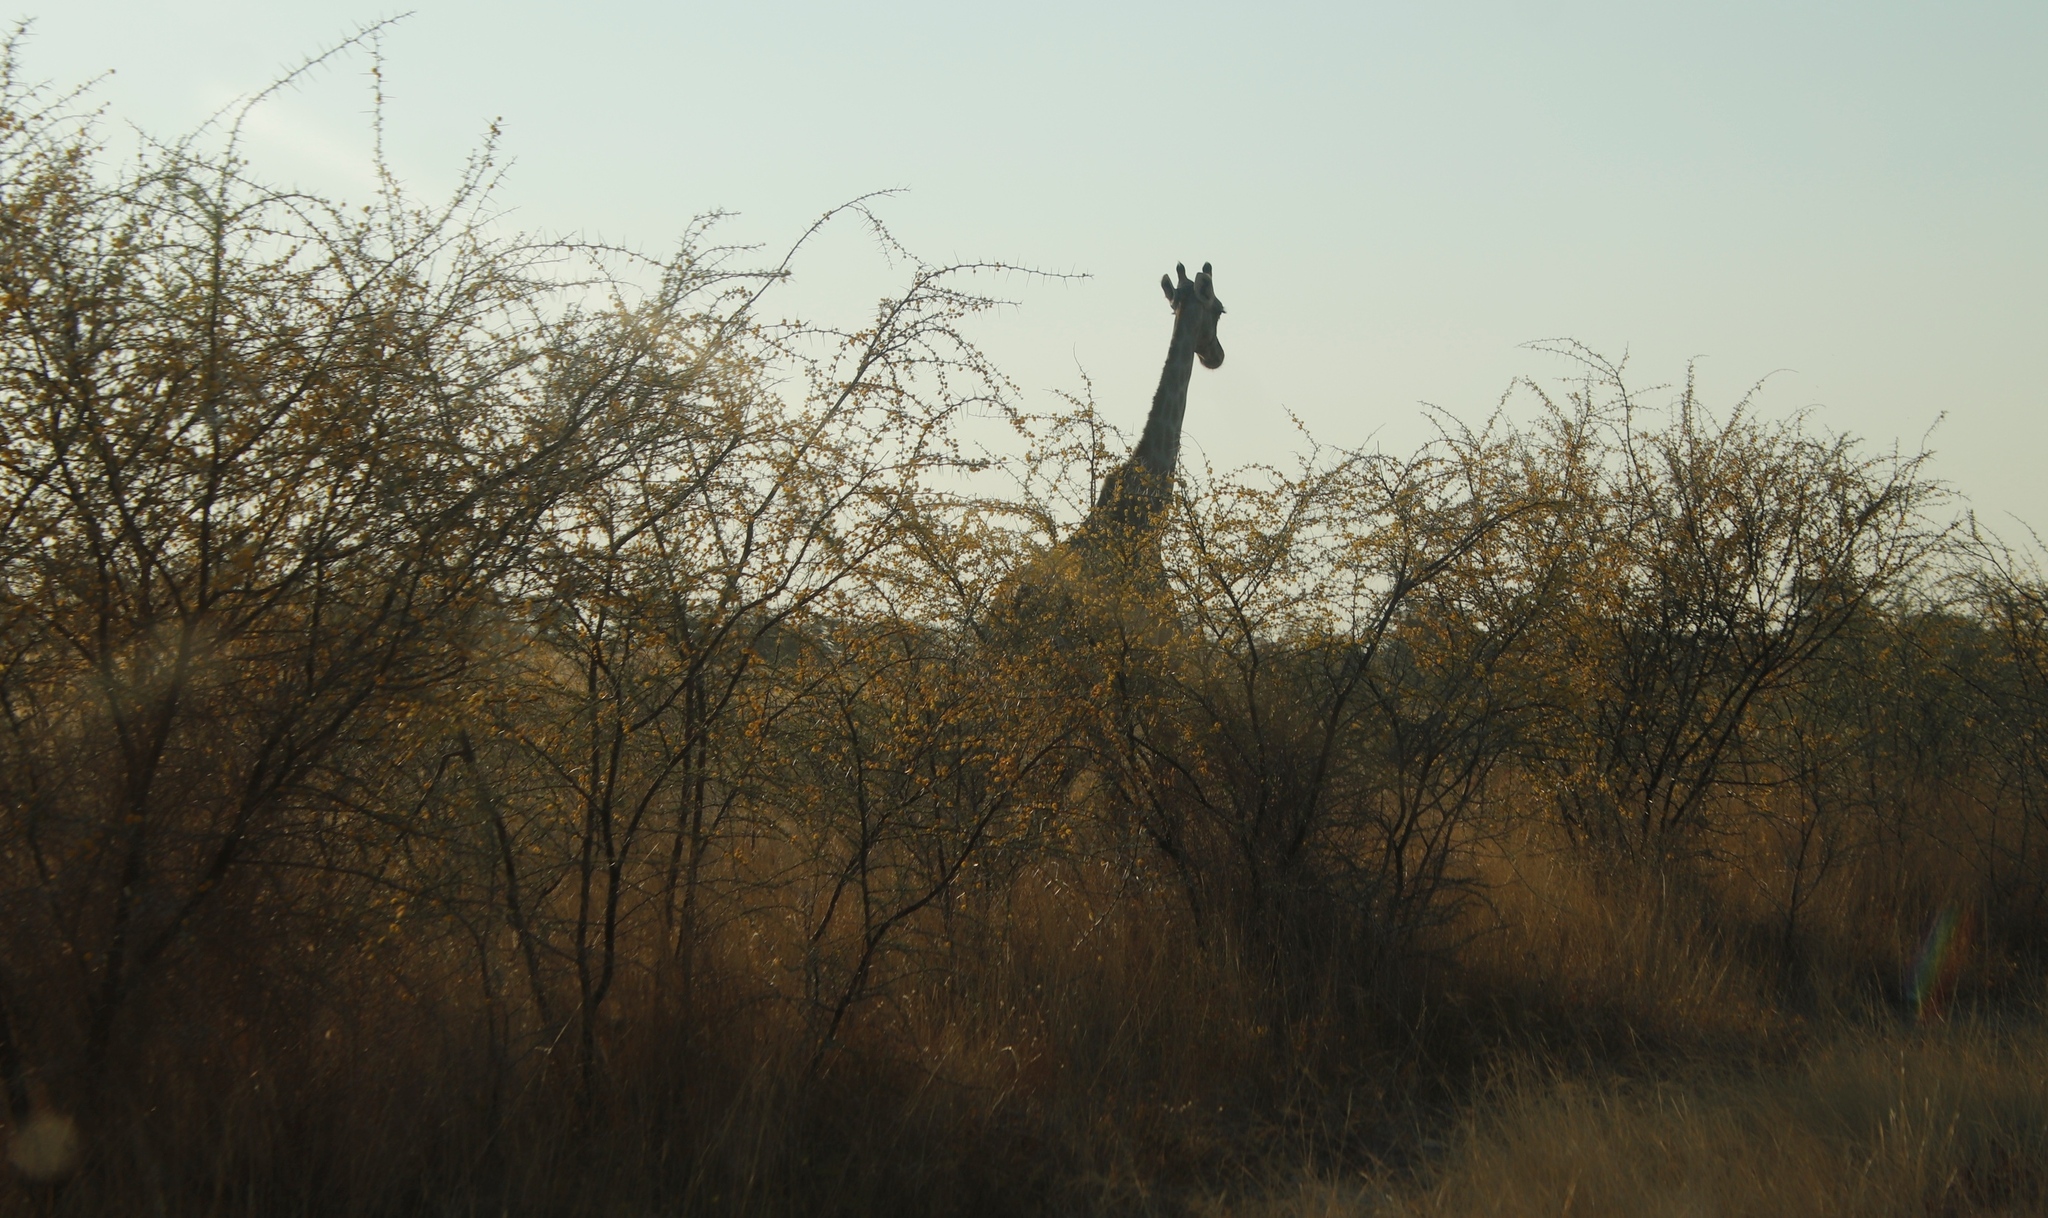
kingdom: Animalia
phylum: Chordata
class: Mammalia
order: Artiodactyla
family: Giraffidae
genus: Giraffa
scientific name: Giraffa giraffa
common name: Southern giraffe
